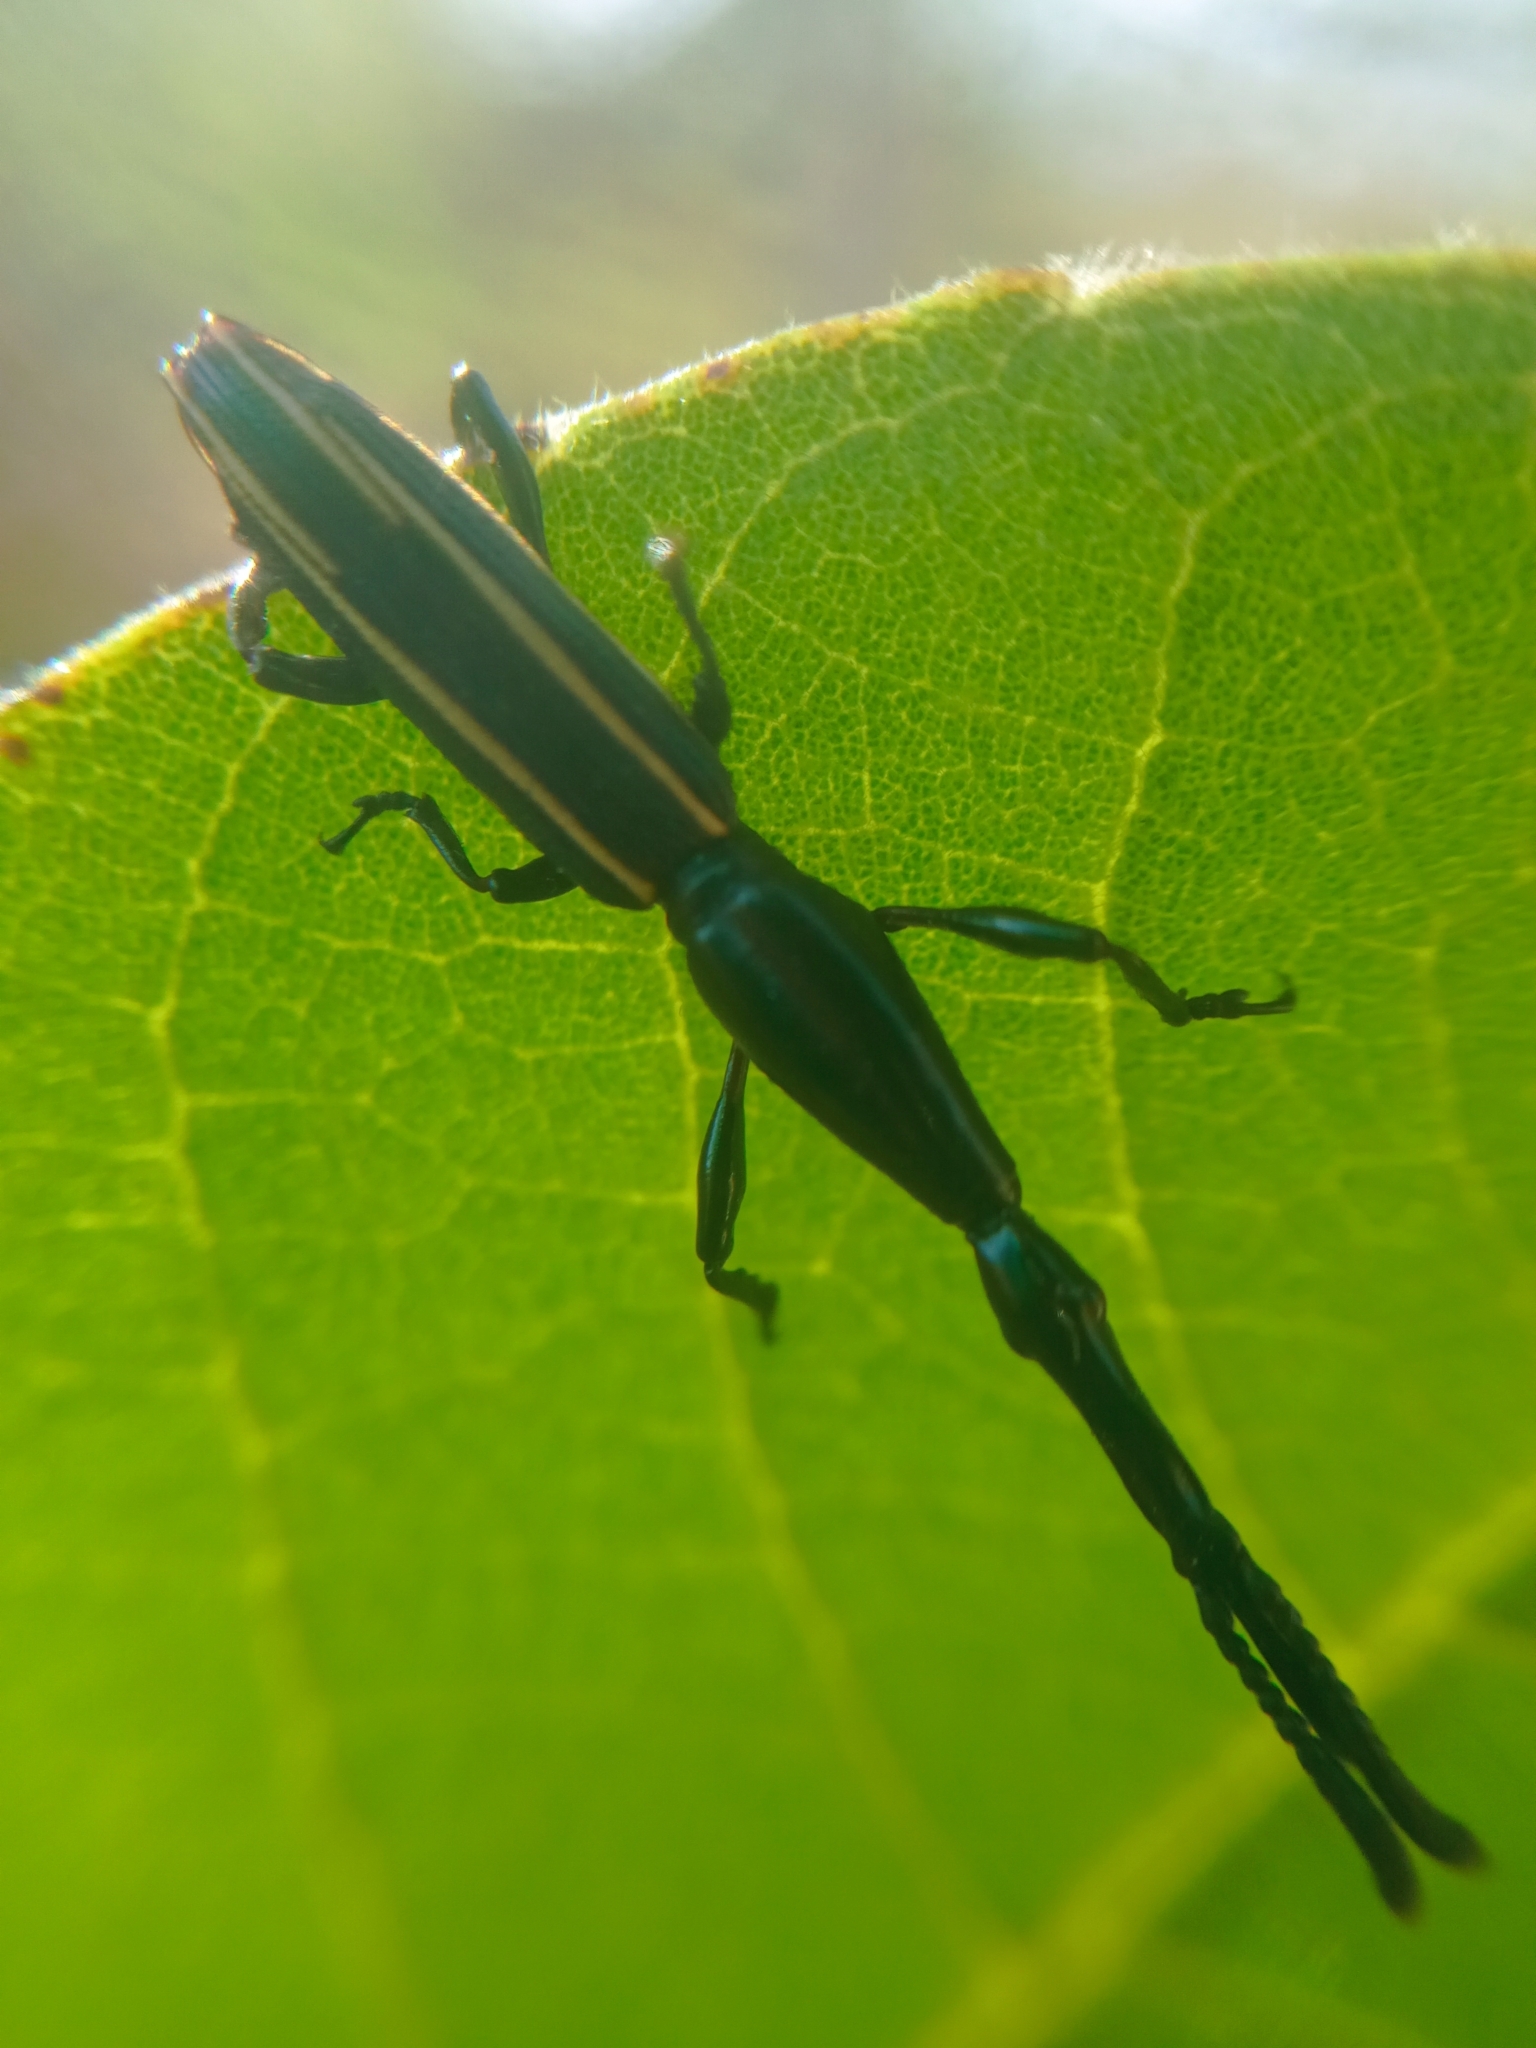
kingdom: Animalia
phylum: Arthropoda
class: Insecta
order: Coleoptera
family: Brentidae
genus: Brentus
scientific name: Brentus anchorago
